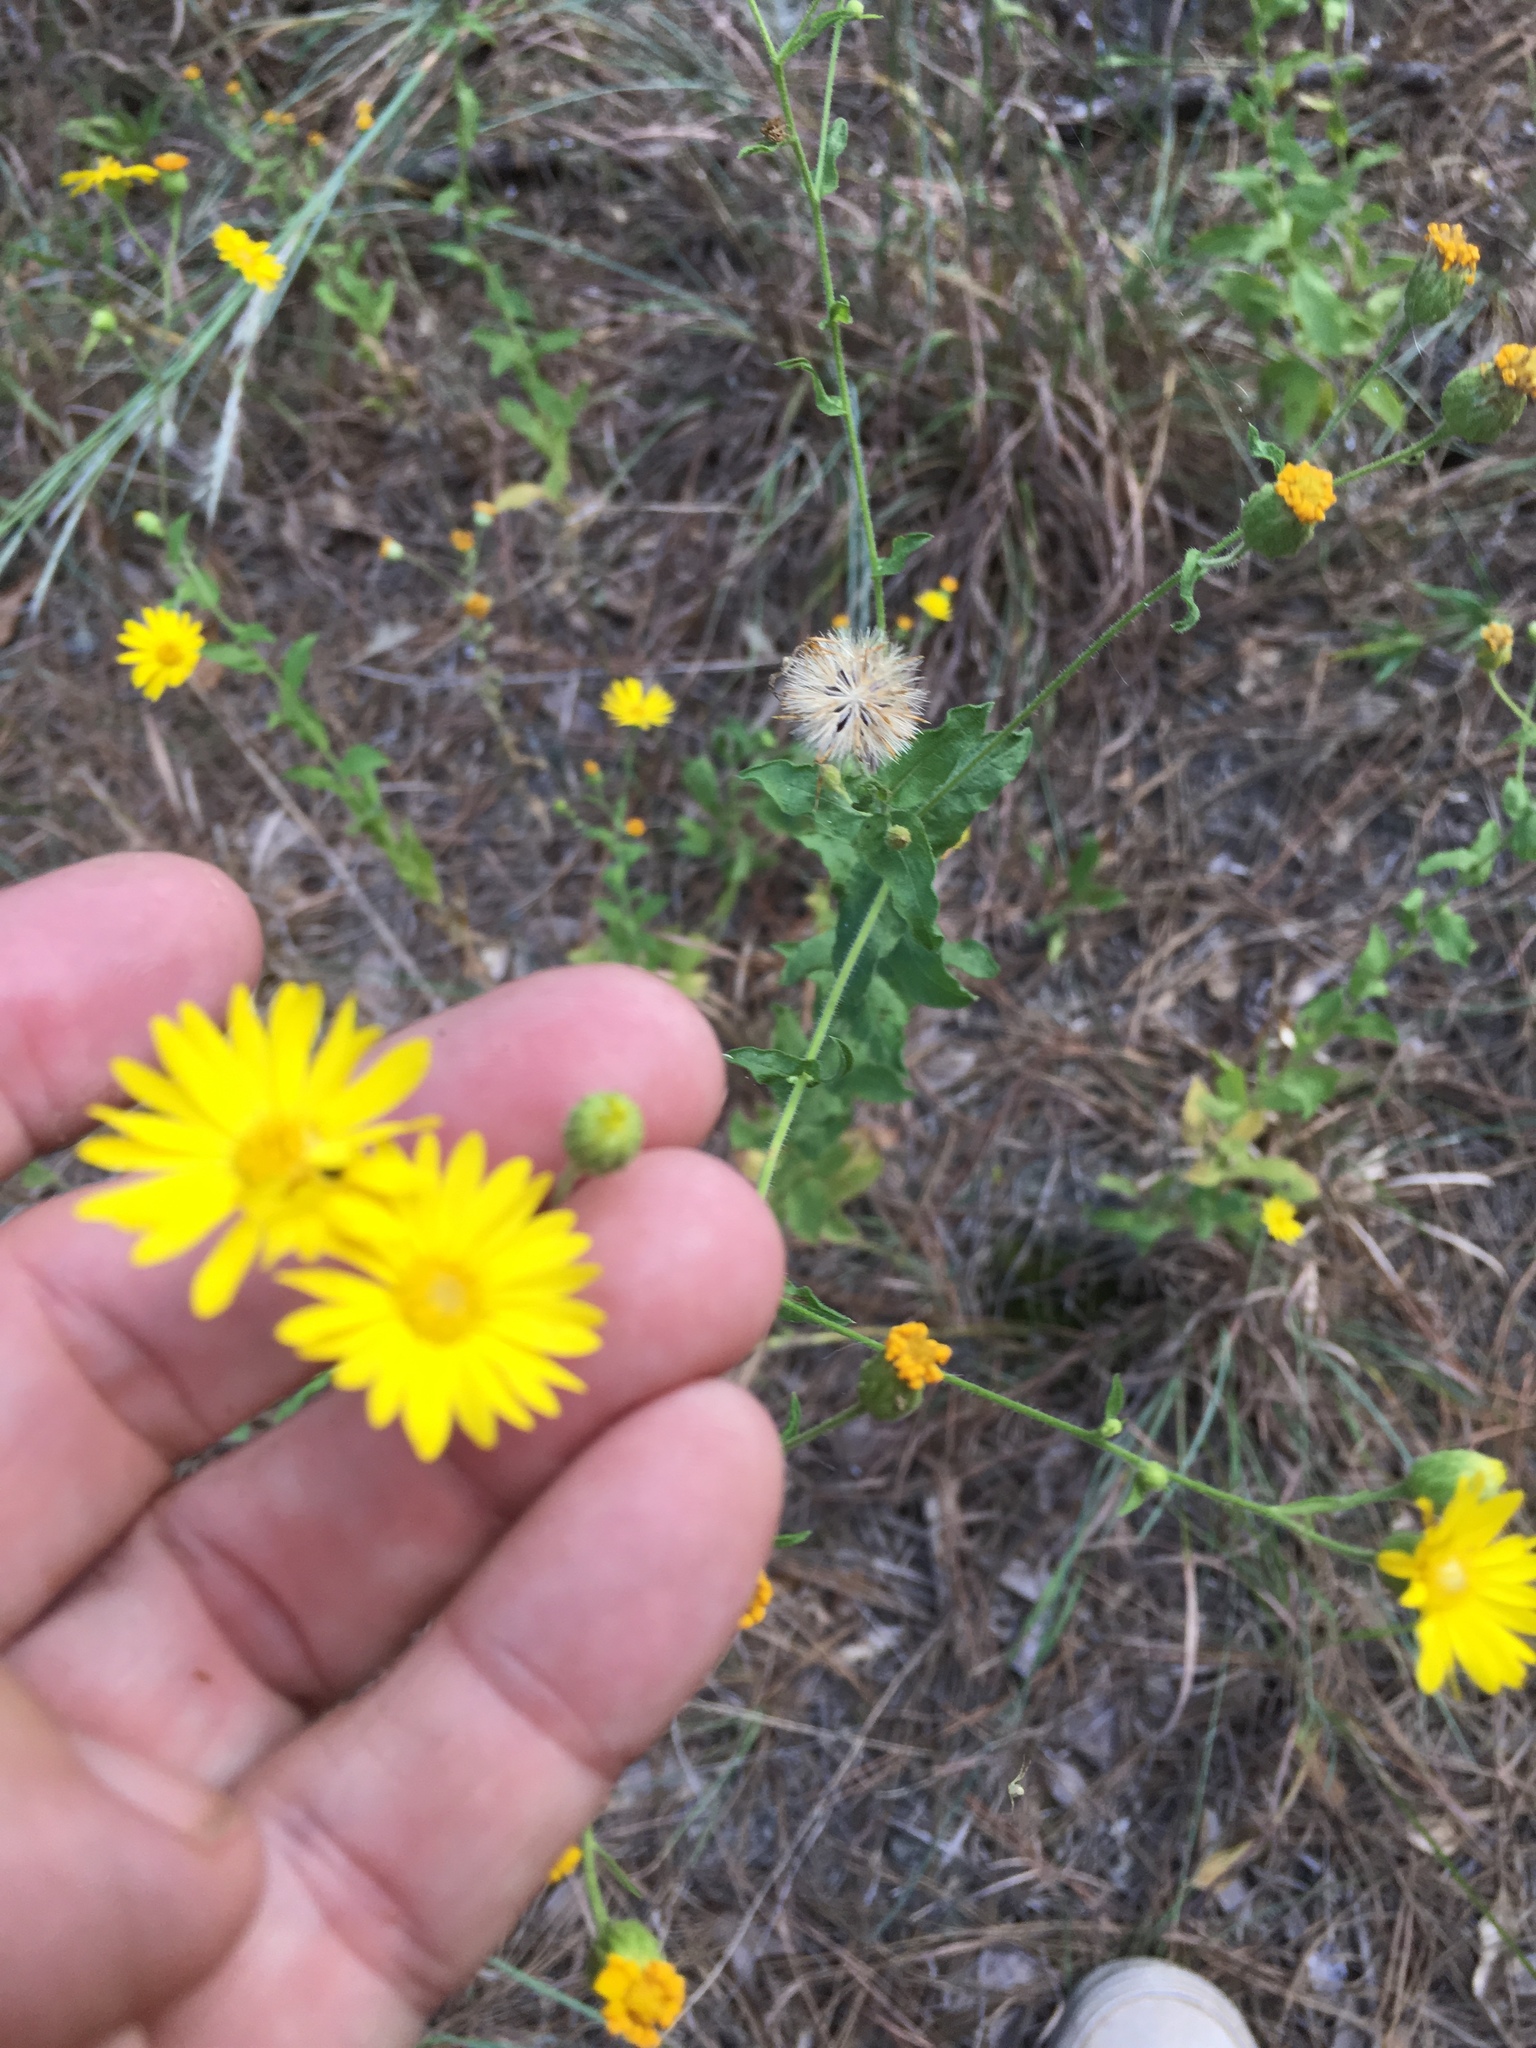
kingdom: Plantae
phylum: Tracheophyta
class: Magnoliopsida
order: Asterales
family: Asteraceae
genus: Heterotheca
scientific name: Heterotheca subaxillaris
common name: Camphorweed
